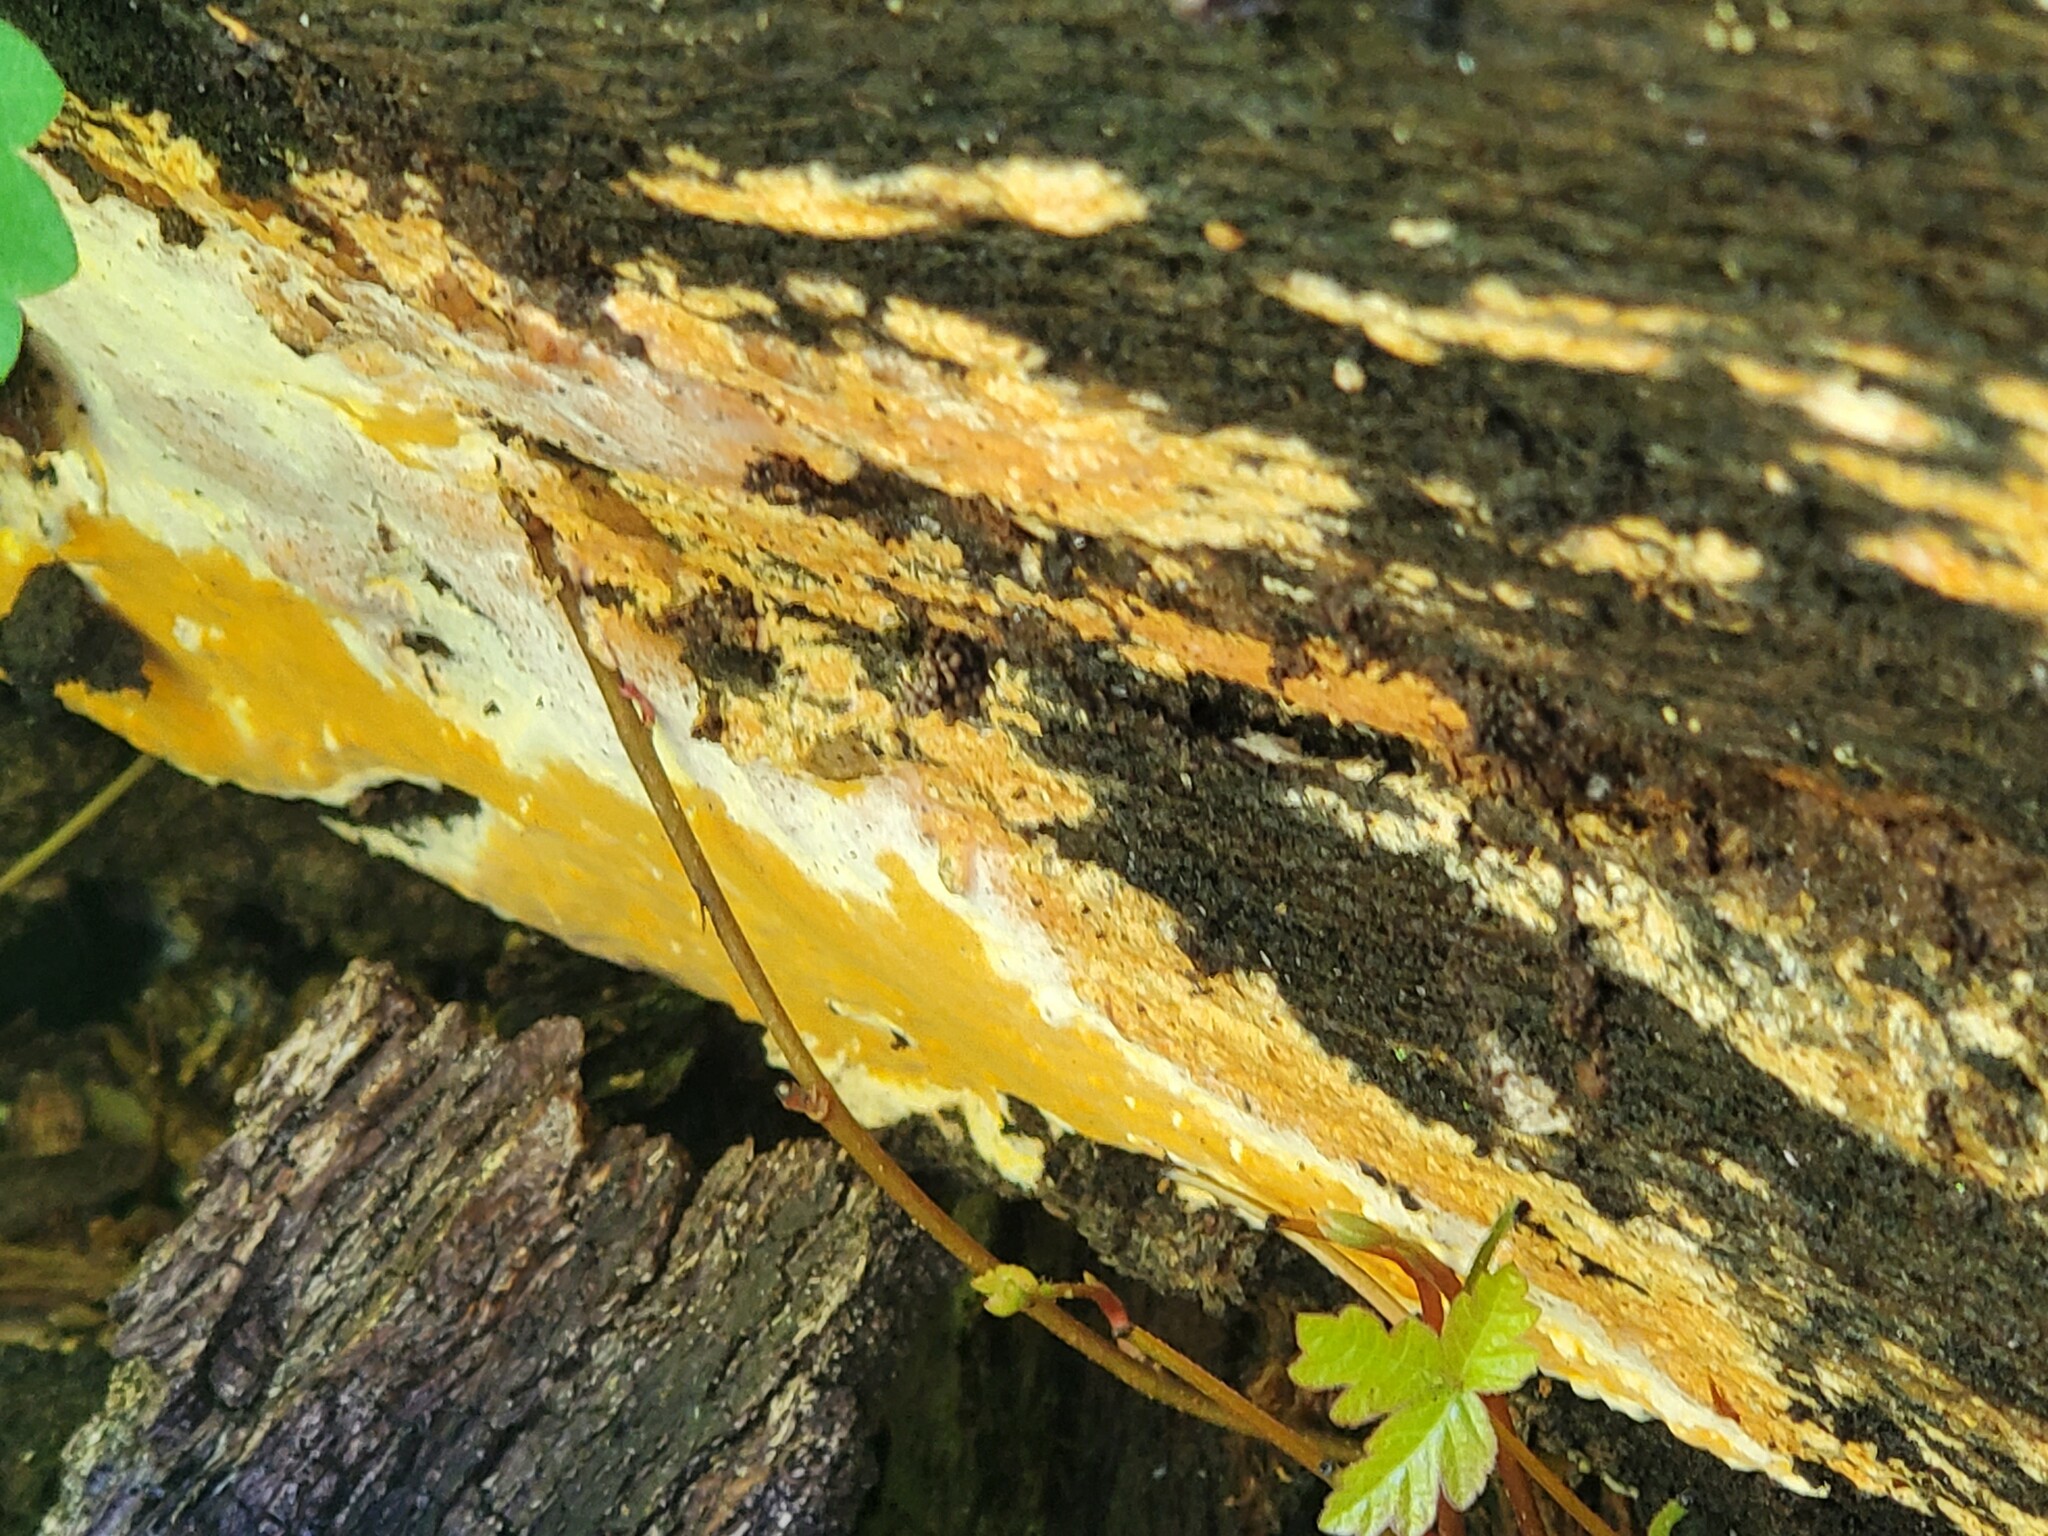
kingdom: Fungi
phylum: Basidiomycota
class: Agaricomycetes
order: Polyporales
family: Irpicaceae
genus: Ceriporia
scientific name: Ceriporia spissa
